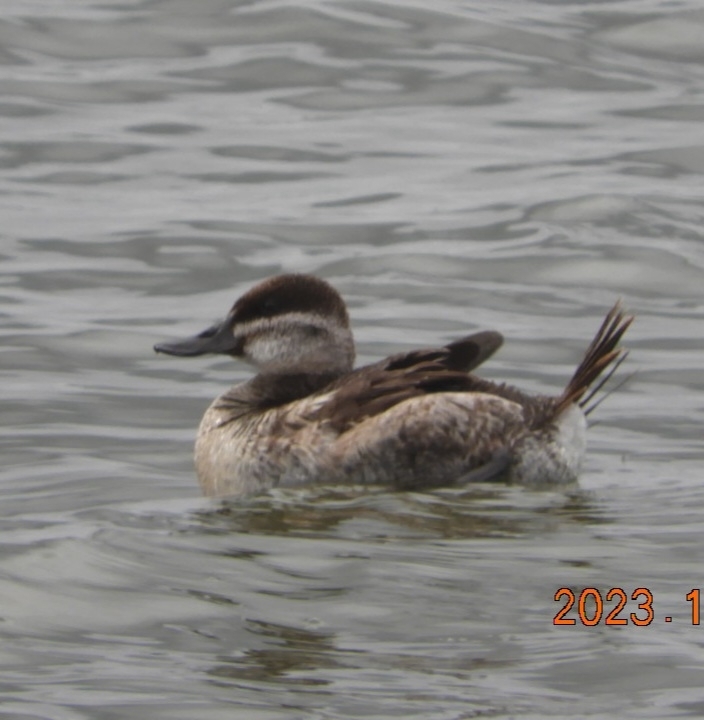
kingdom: Animalia
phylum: Chordata
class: Aves
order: Anseriformes
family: Anatidae
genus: Oxyura
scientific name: Oxyura jamaicensis
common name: Ruddy duck
